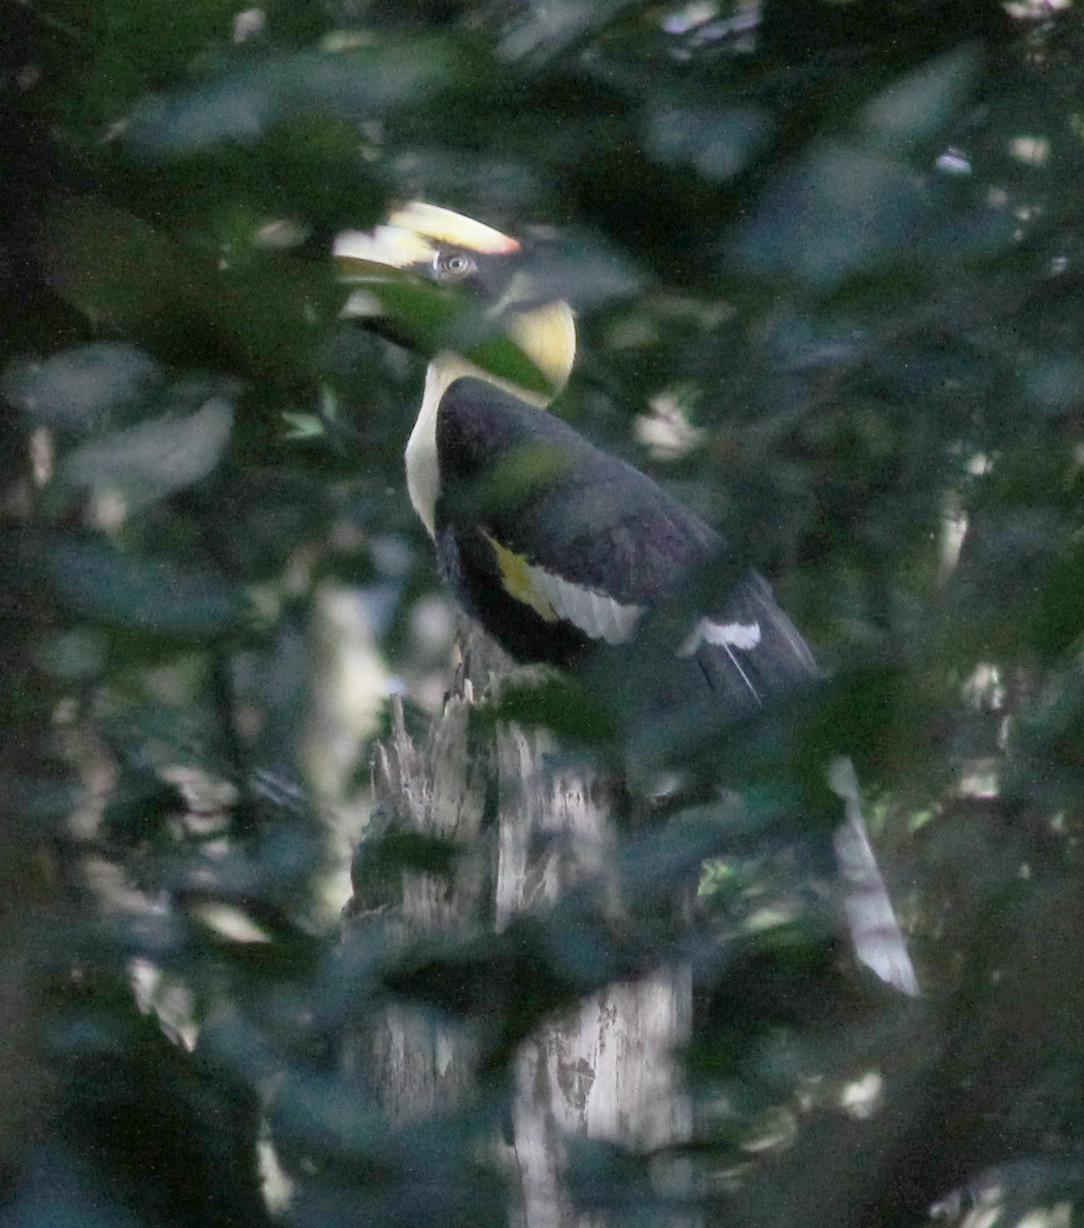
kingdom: Animalia
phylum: Chordata
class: Aves
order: Bucerotiformes
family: Bucerotidae
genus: Buceros
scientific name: Buceros bicornis
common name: Great hornbill
